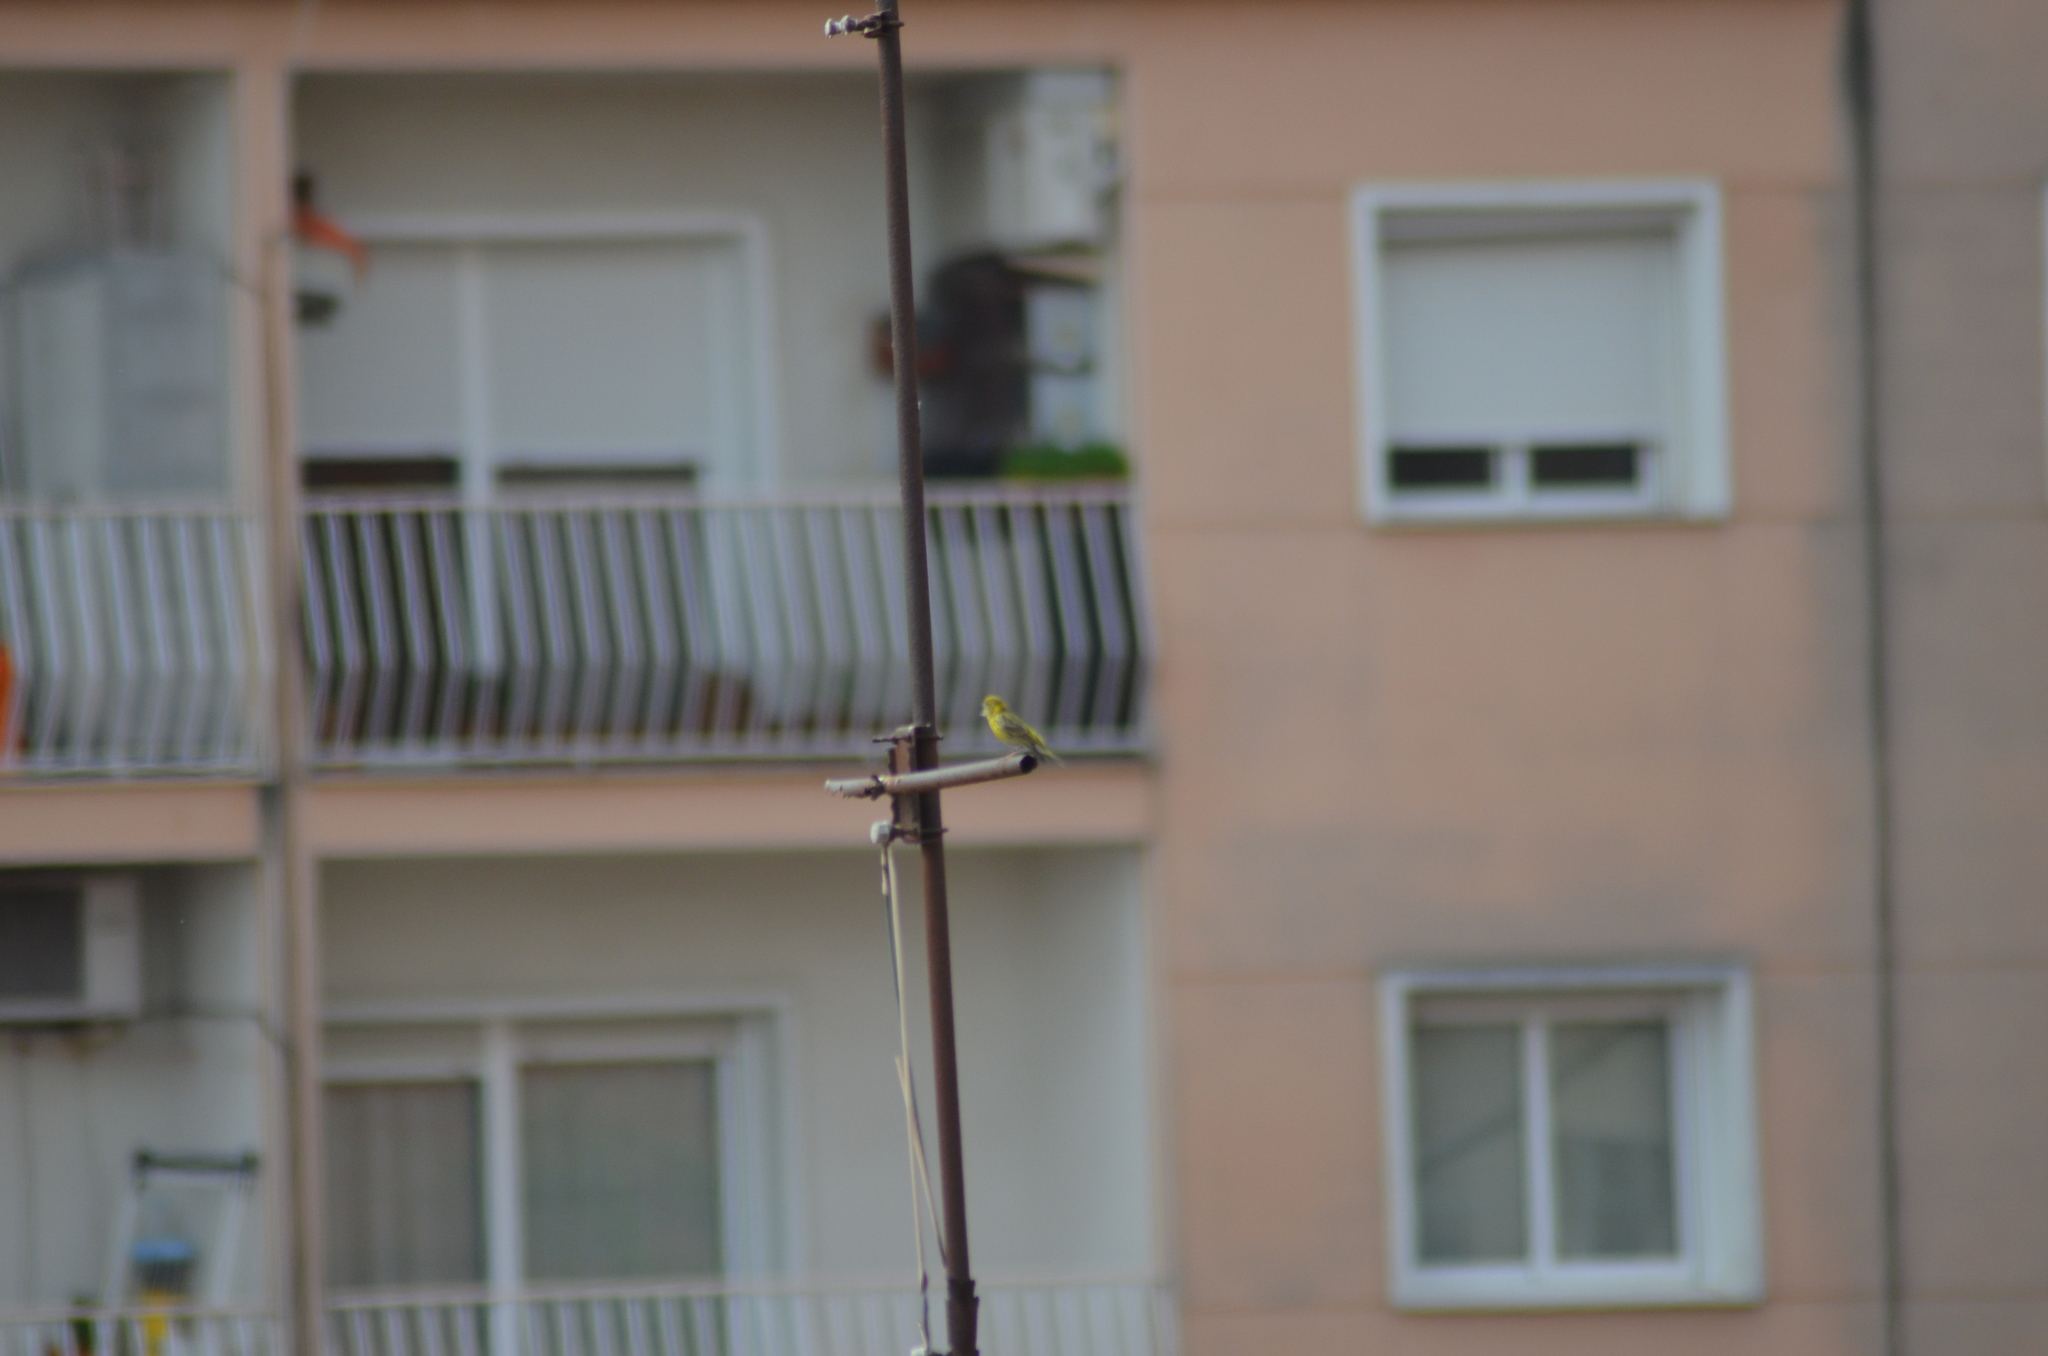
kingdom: Animalia
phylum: Chordata
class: Aves
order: Passeriformes
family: Fringillidae
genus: Serinus
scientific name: Serinus serinus
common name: European serin
